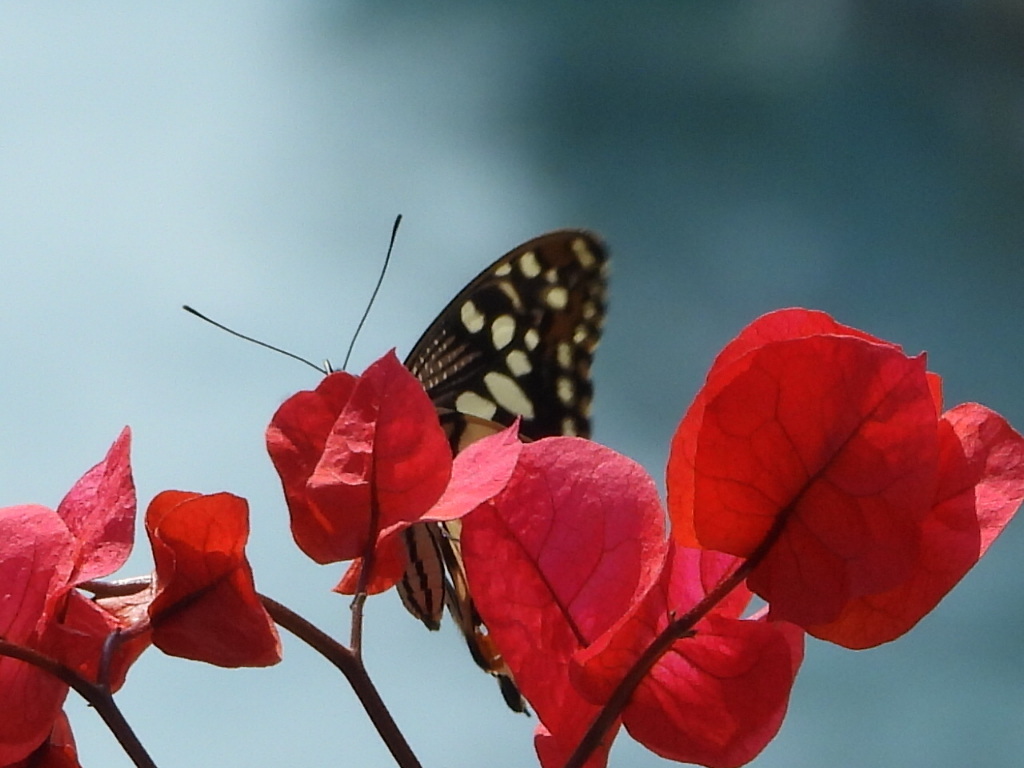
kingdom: Animalia
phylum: Arthropoda
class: Insecta
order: Lepidoptera
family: Papilionidae
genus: Papilio
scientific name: Papilio demoleus
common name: Lime butterfly
